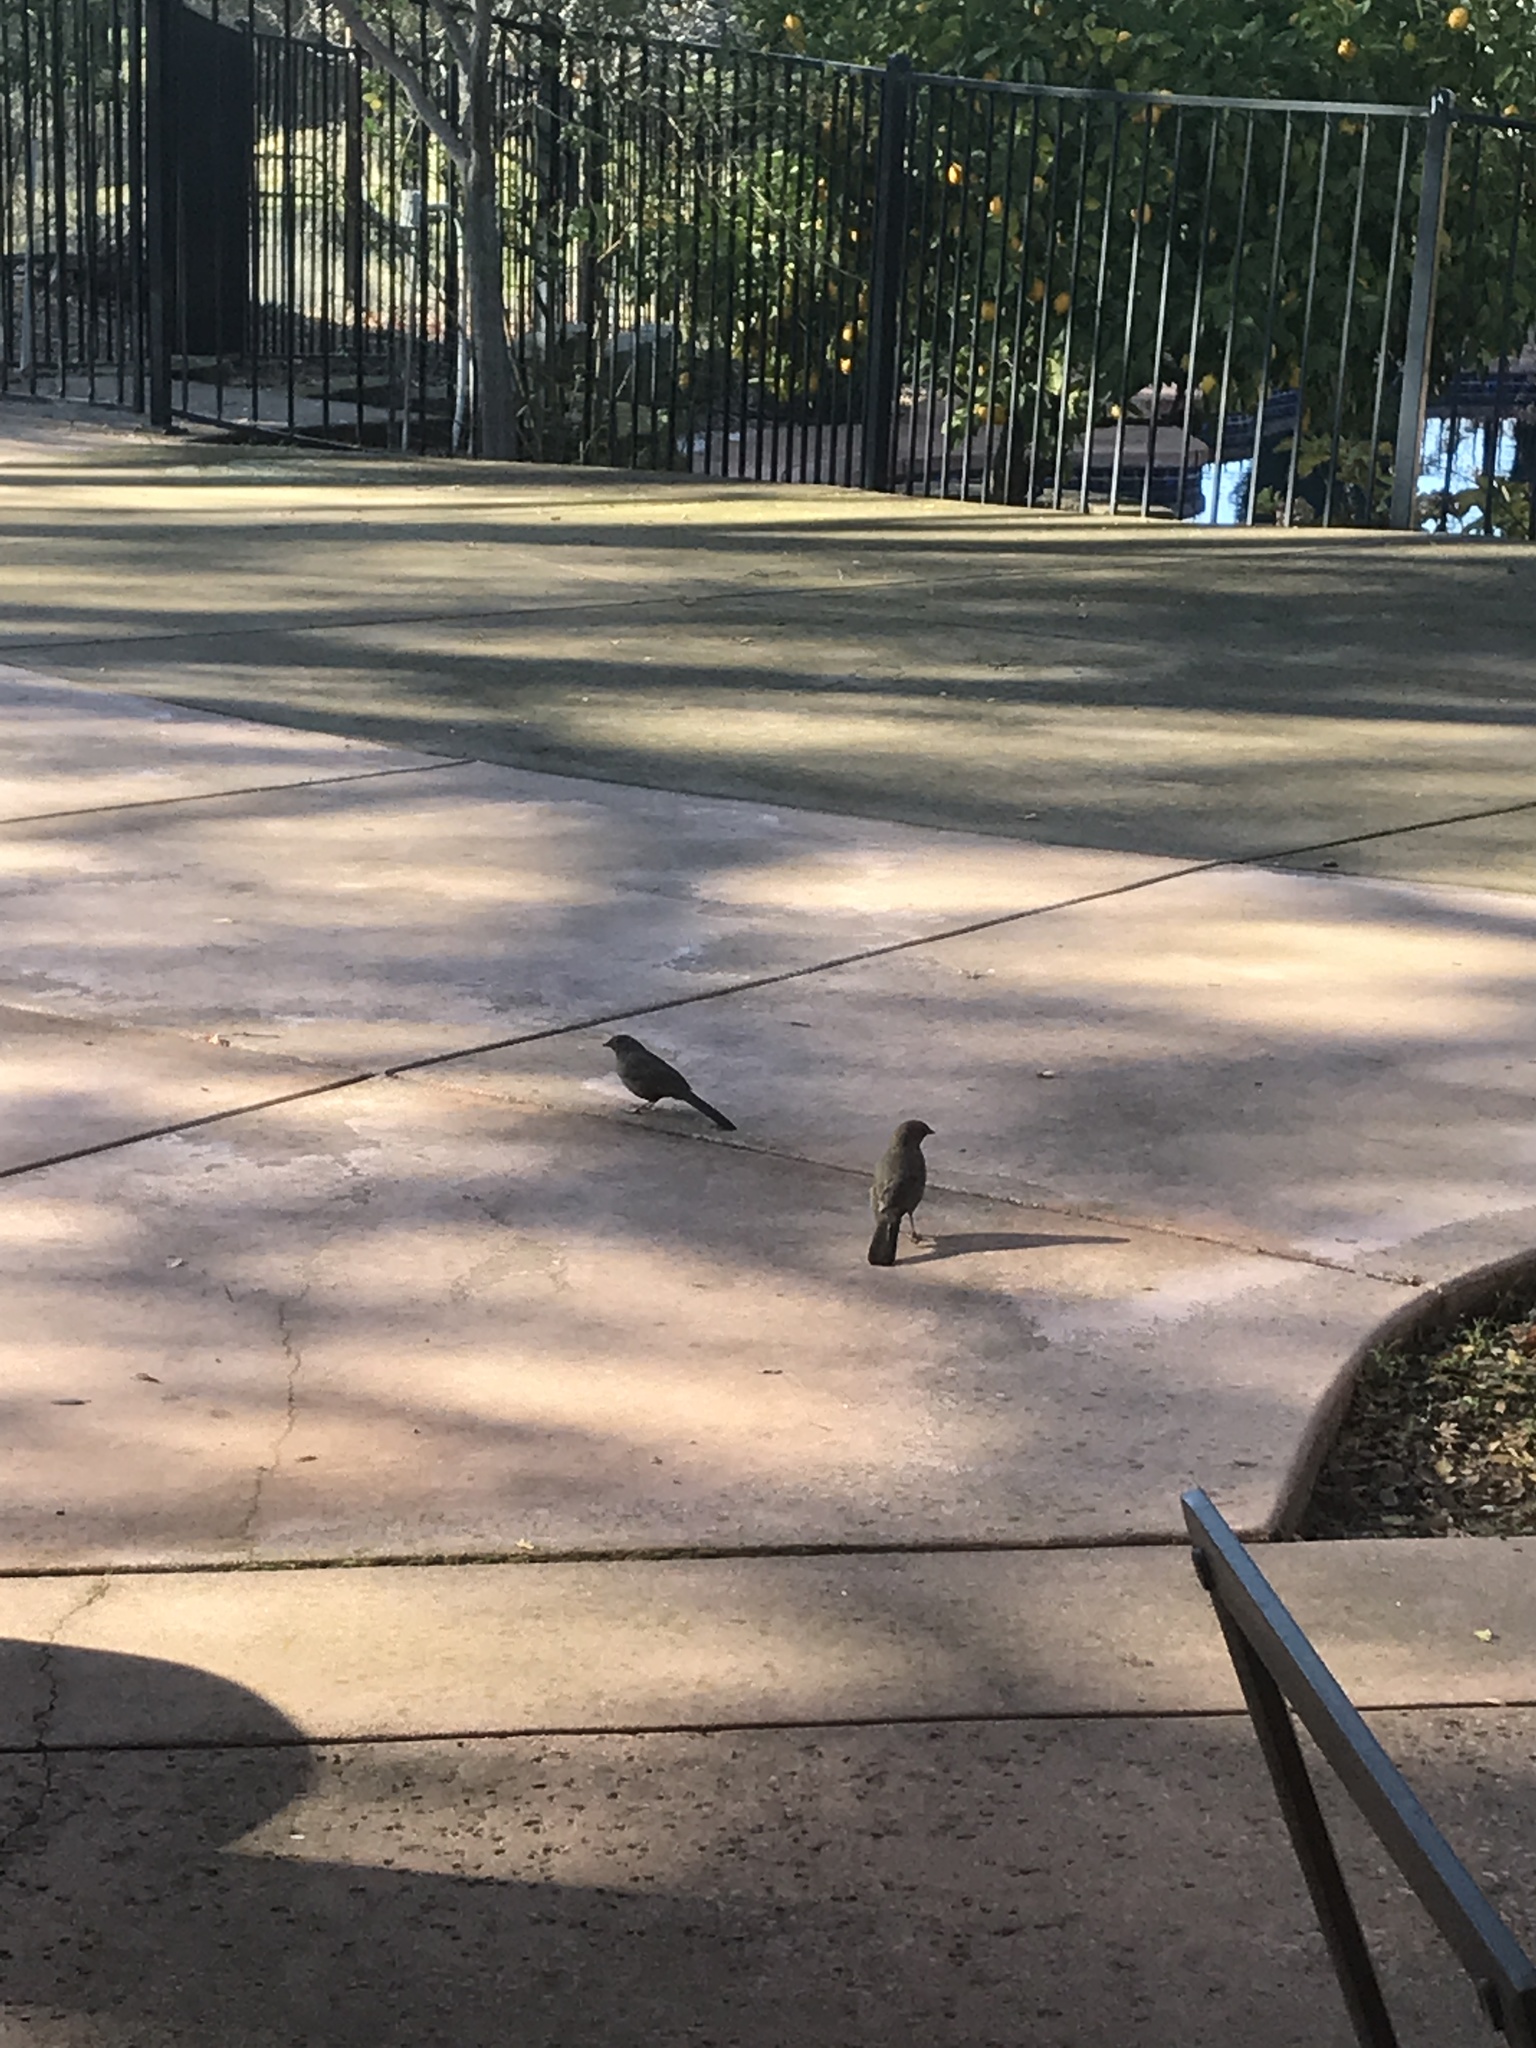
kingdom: Animalia
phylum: Chordata
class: Aves
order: Passeriformes
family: Passerellidae
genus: Melozone
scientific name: Melozone crissalis
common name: California towhee
